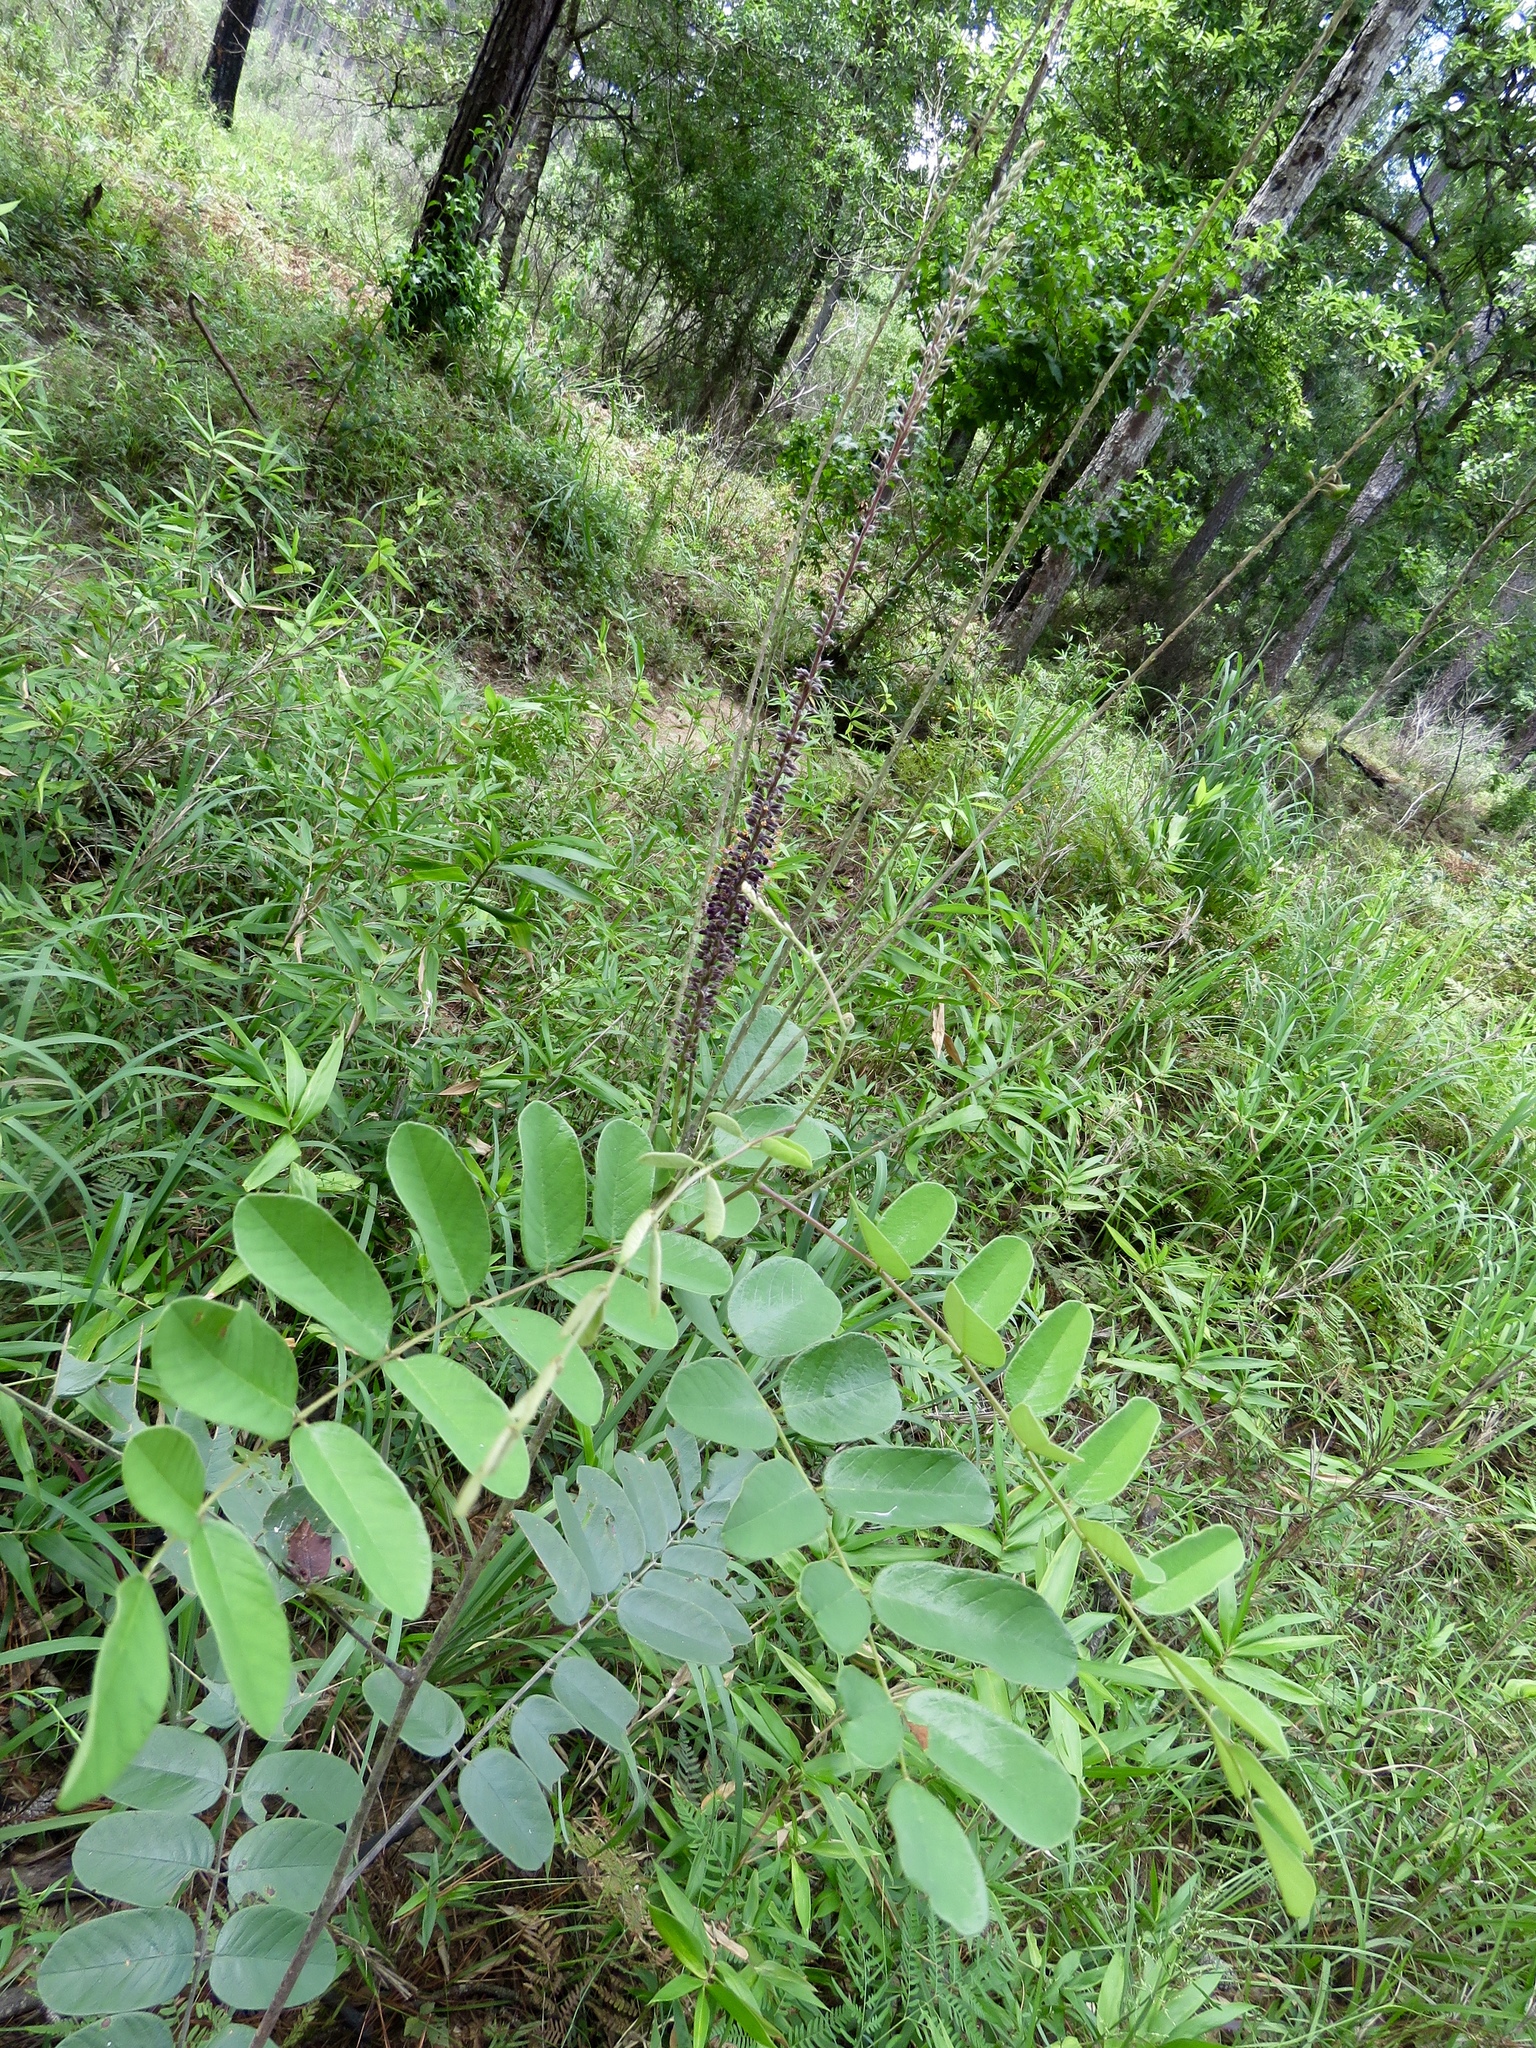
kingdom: Plantae
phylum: Tracheophyta
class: Magnoliopsida
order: Fabales
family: Fabaceae
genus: Amorpha
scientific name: Amorpha paniculata
